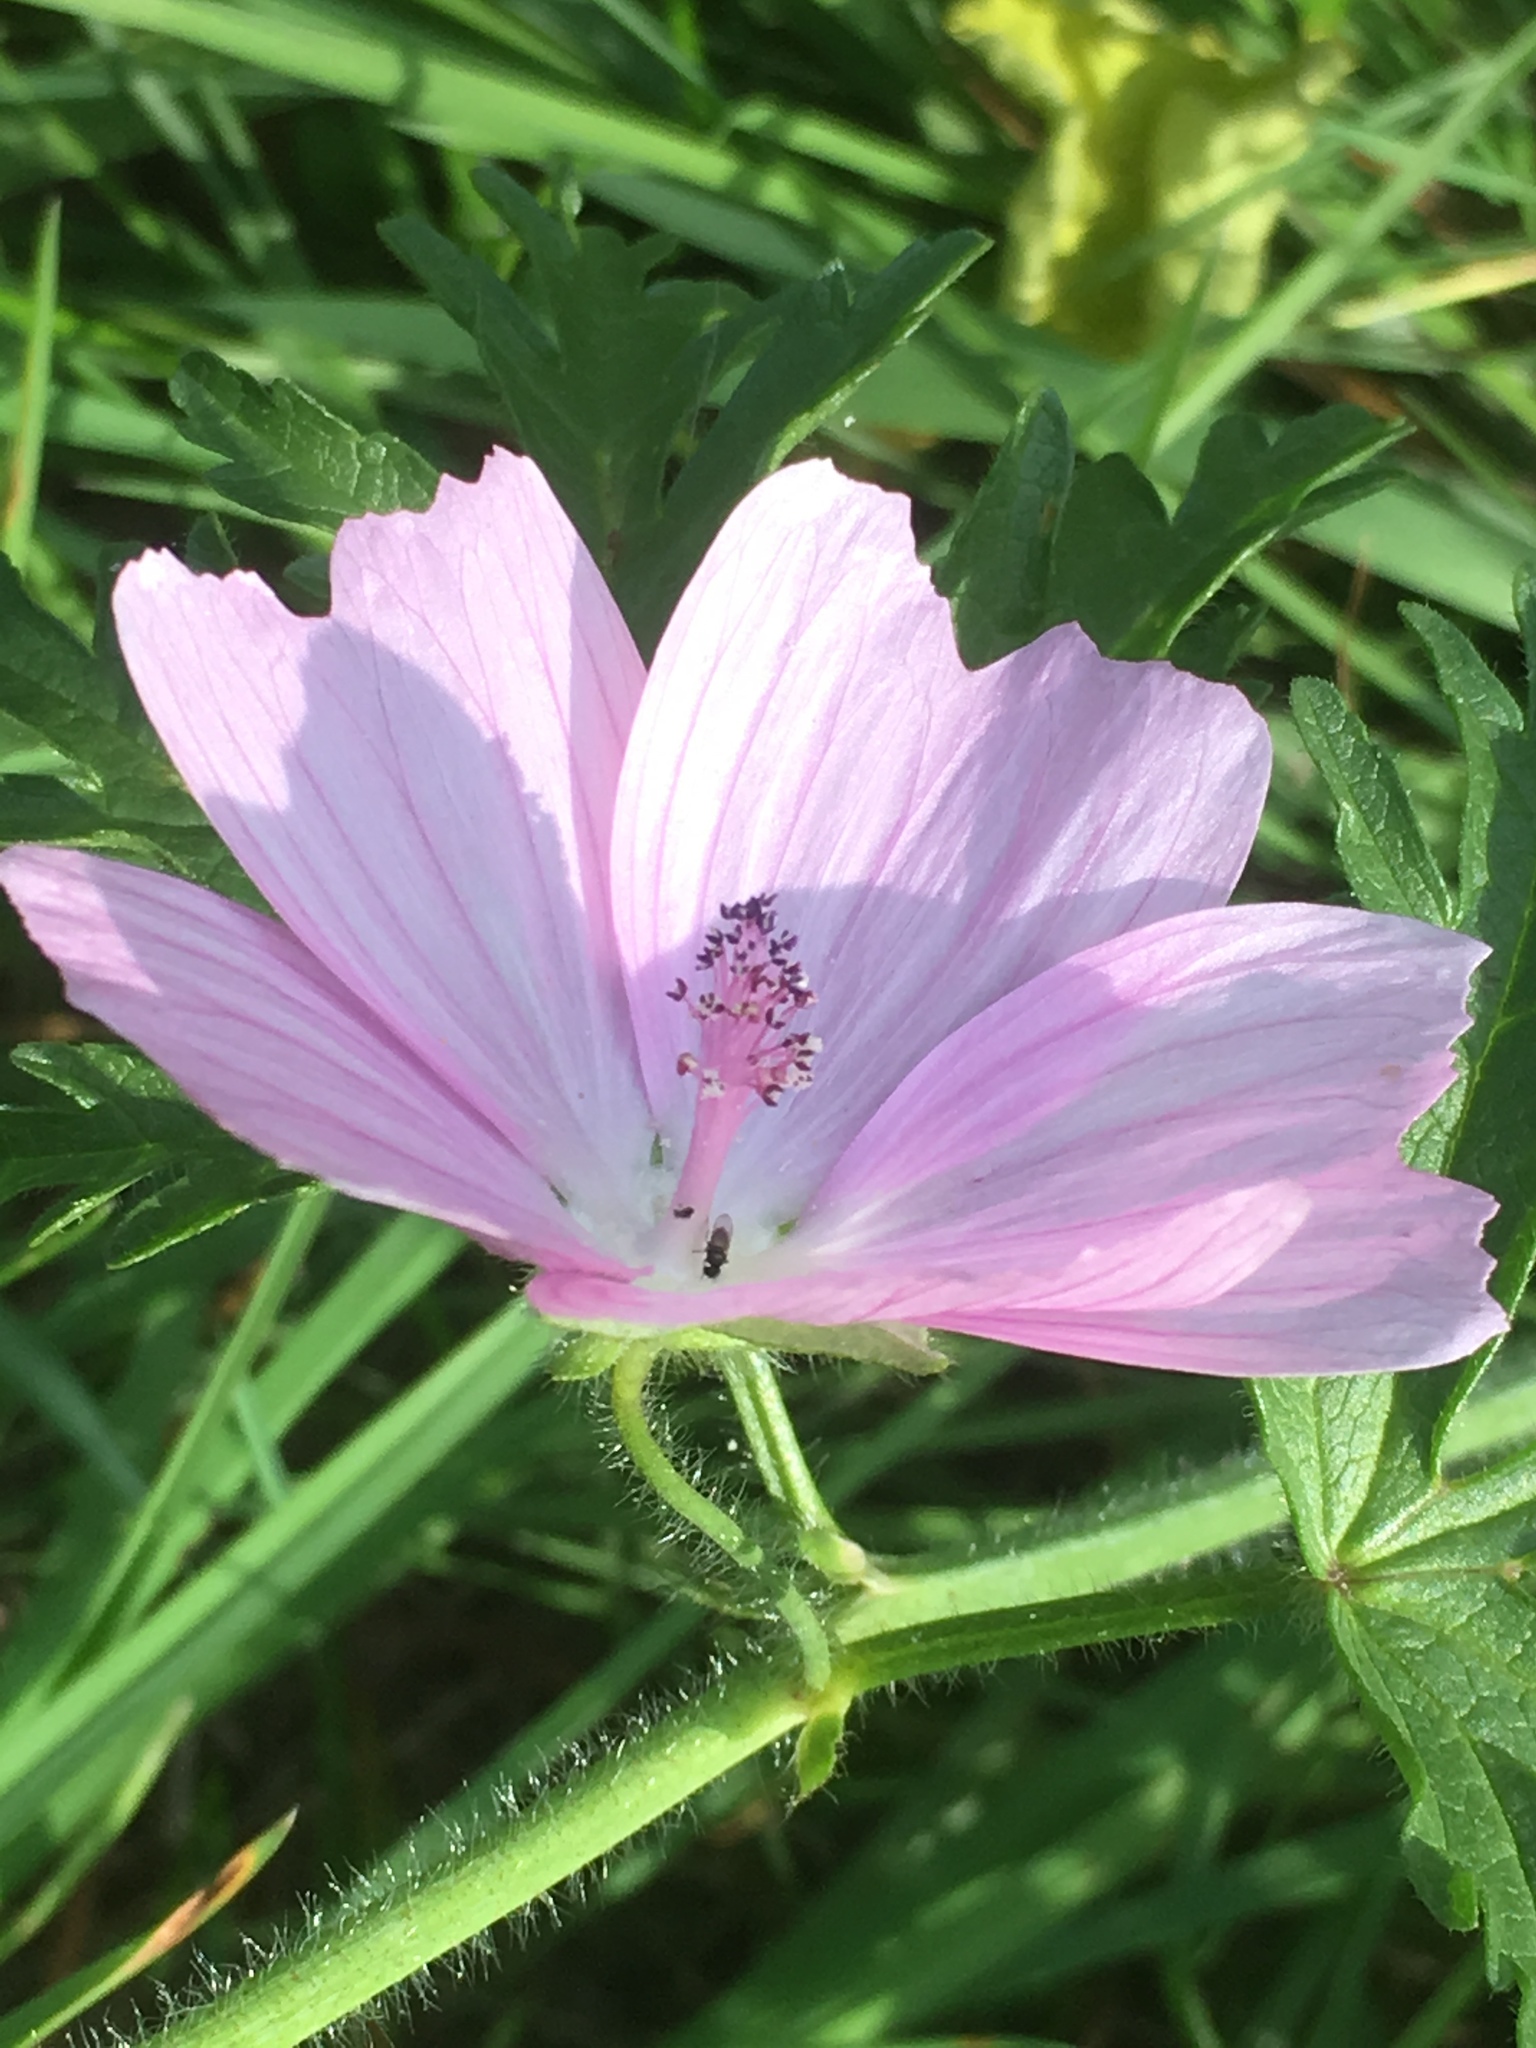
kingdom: Plantae
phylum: Tracheophyta
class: Magnoliopsida
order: Malvales
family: Malvaceae
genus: Malva
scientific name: Malva moschata
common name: Musk mallow
